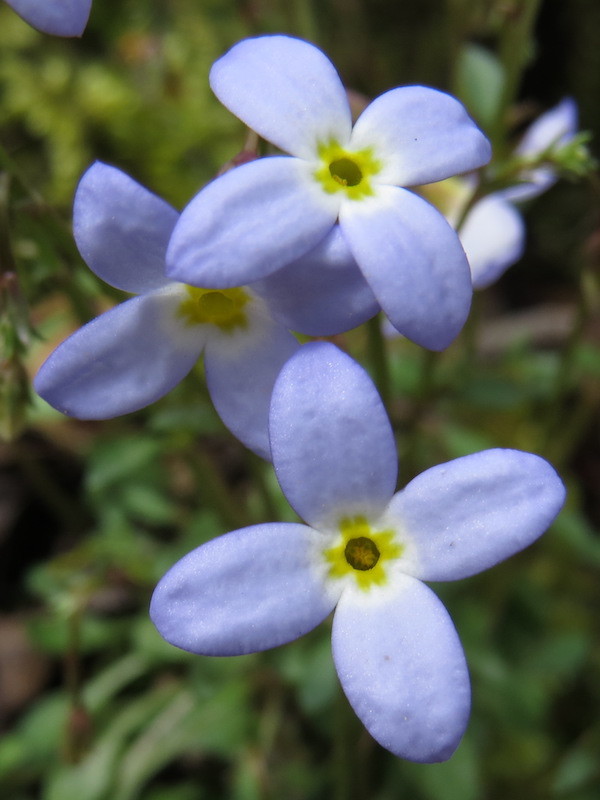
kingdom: Plantae
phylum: Tracheophyta
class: Magnoliopsida
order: Gentianales
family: Rubiaceae
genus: Houstonia
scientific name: Houstonia caerulea
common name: Bluets
